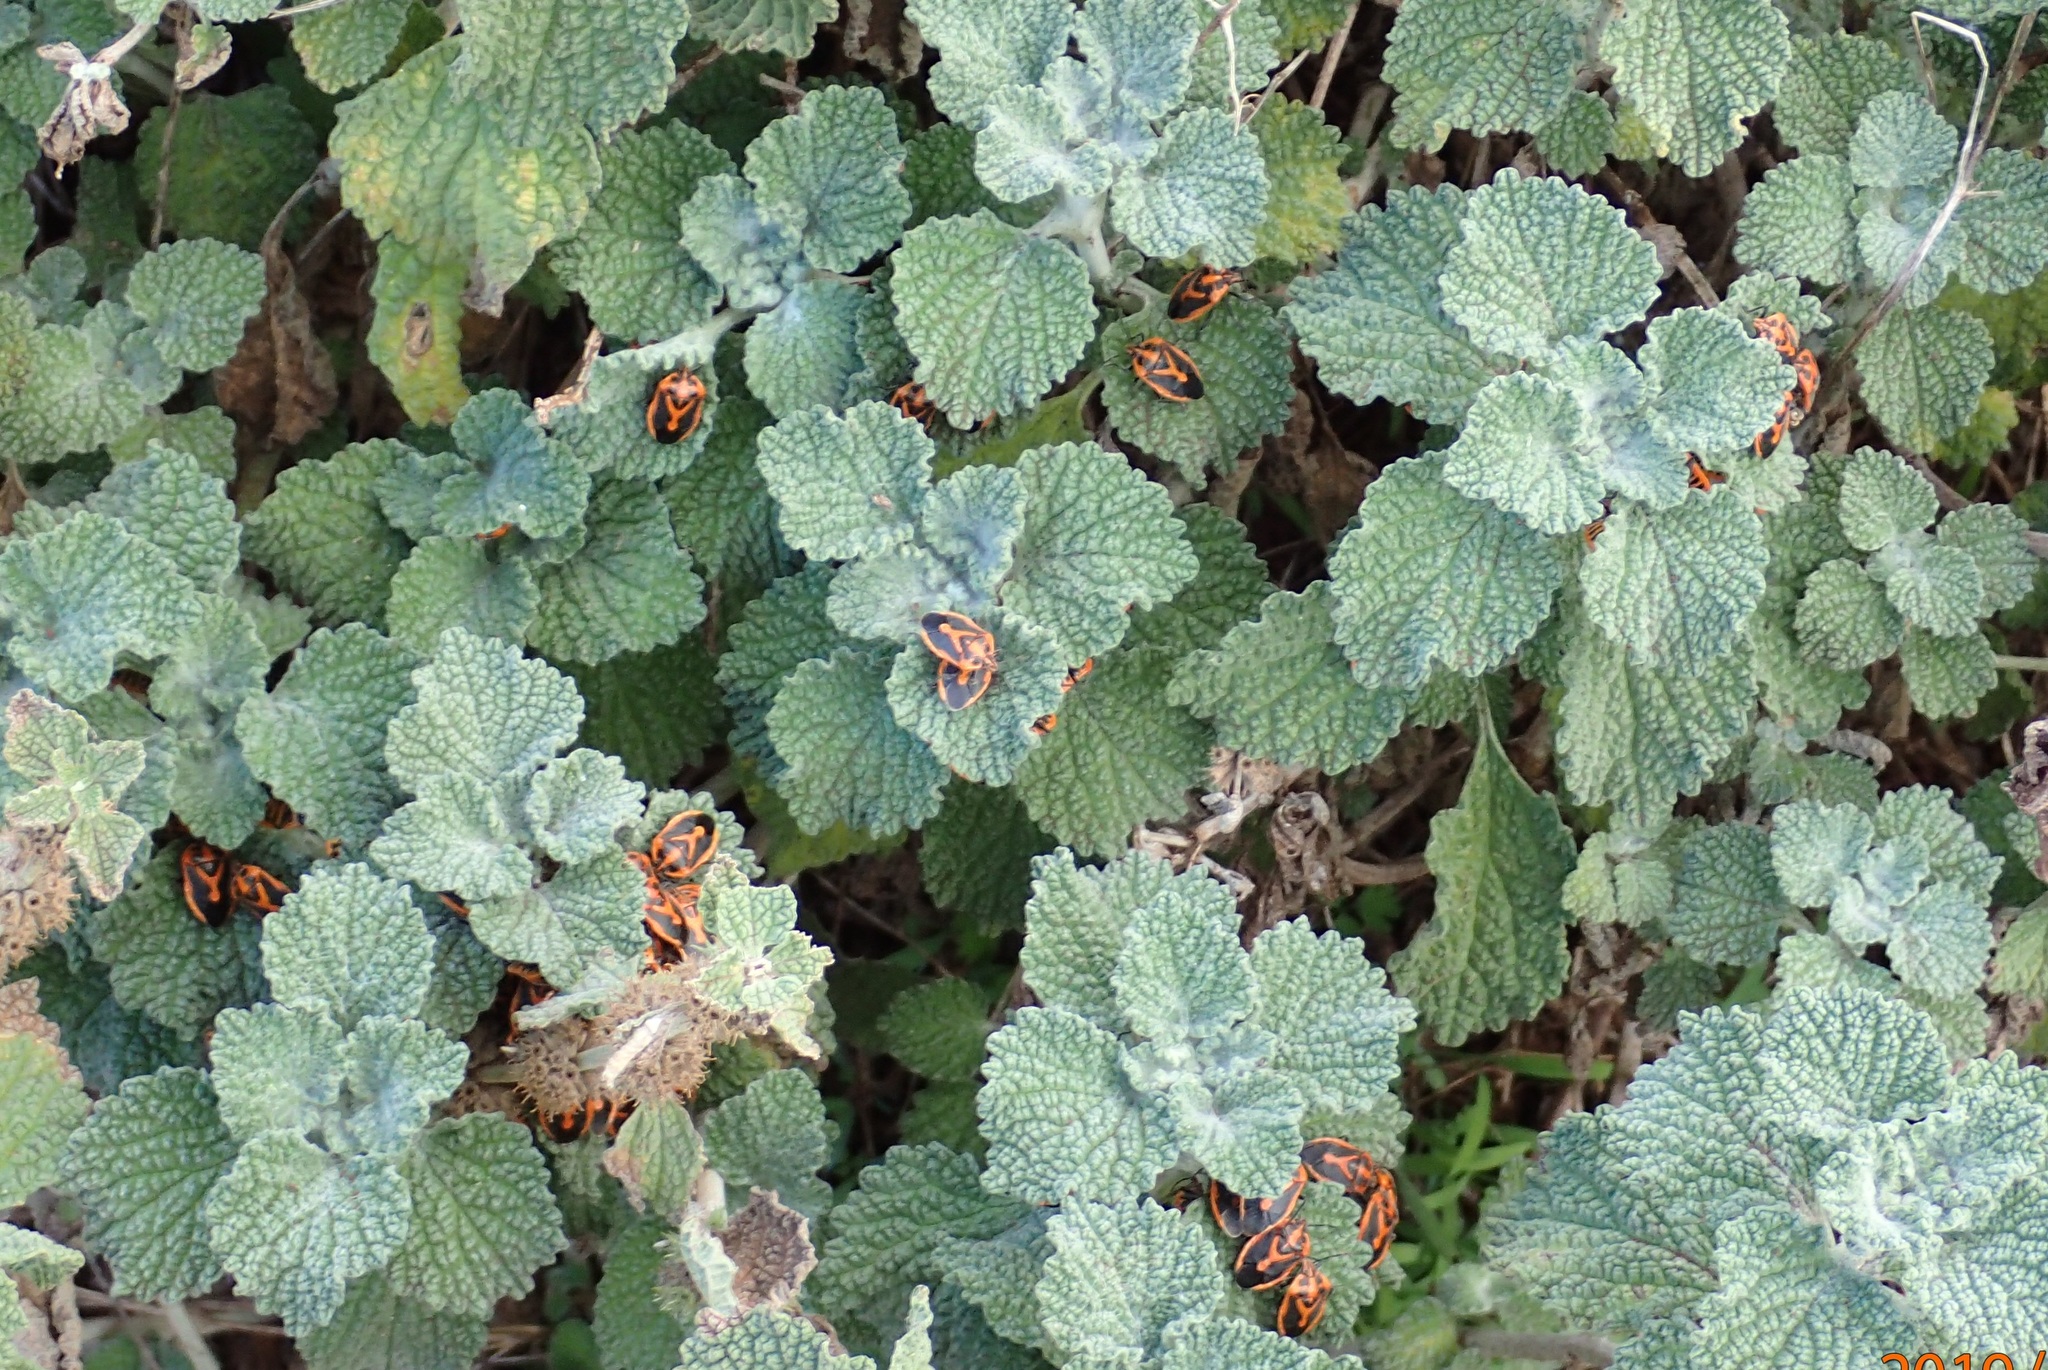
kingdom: Plantae
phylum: Tracheophyta
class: Magnoliopsida
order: Lamiales
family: Lamiaceae
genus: Marrubium
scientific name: Marrubium vulgare
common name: Horehound
